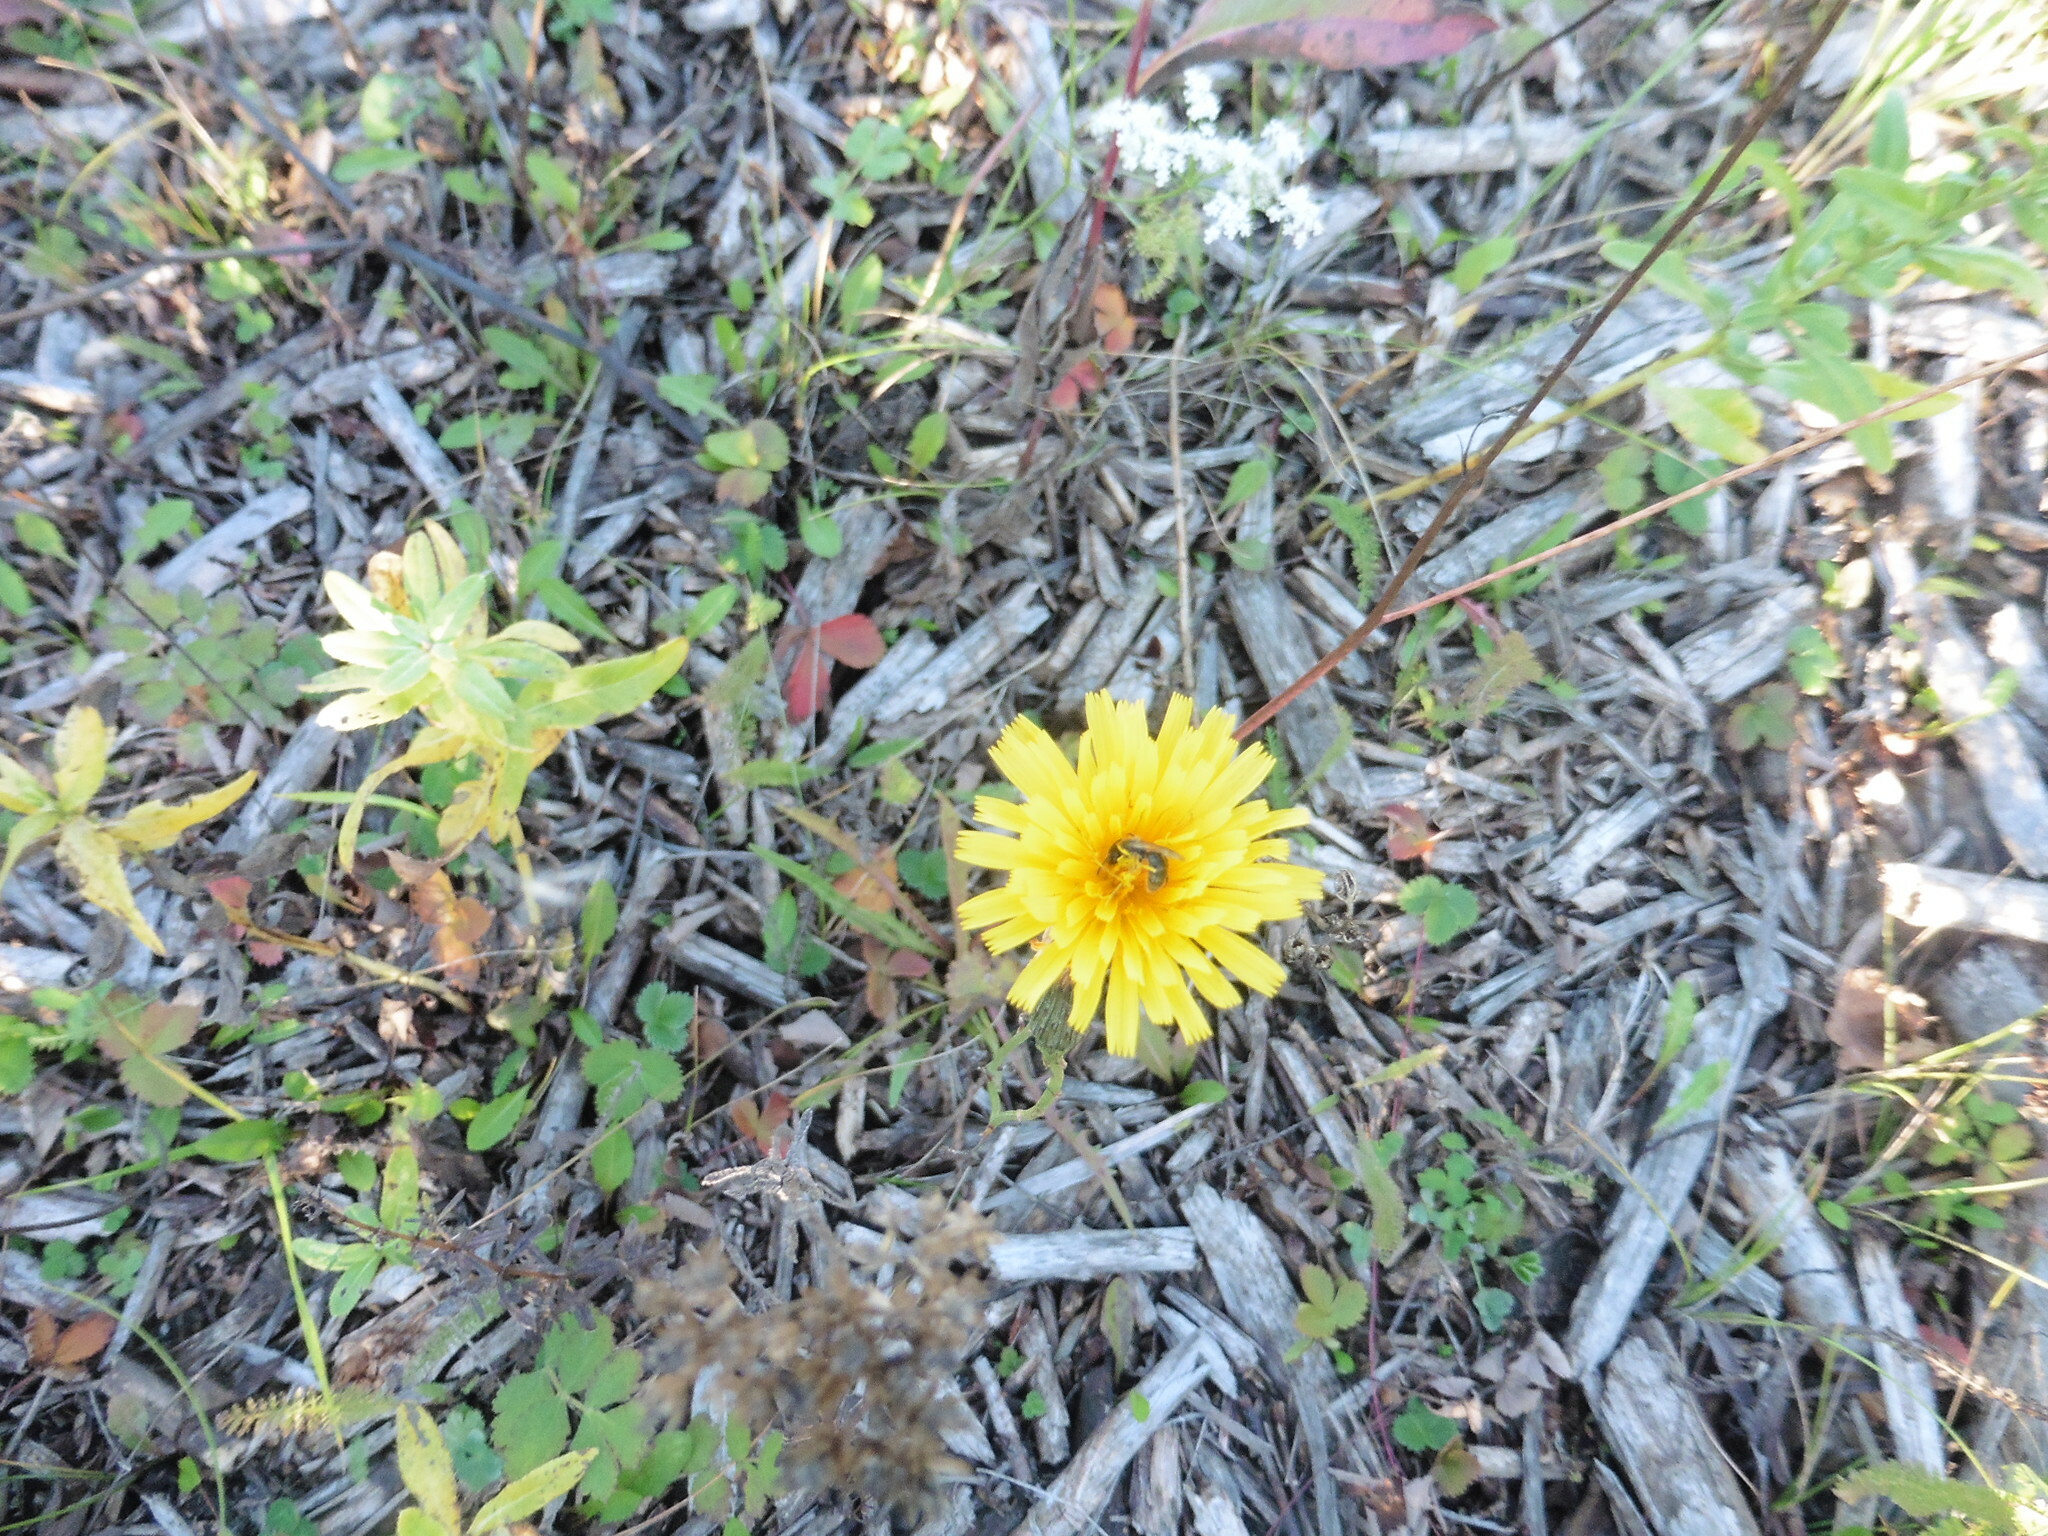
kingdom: Plantae
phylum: Tracheophyta
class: Magnoliopsida
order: Asterales
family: Asteraceae
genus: Scorzoneroides
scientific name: Scorzoneroides autumnalis
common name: Autumn hawkbit
